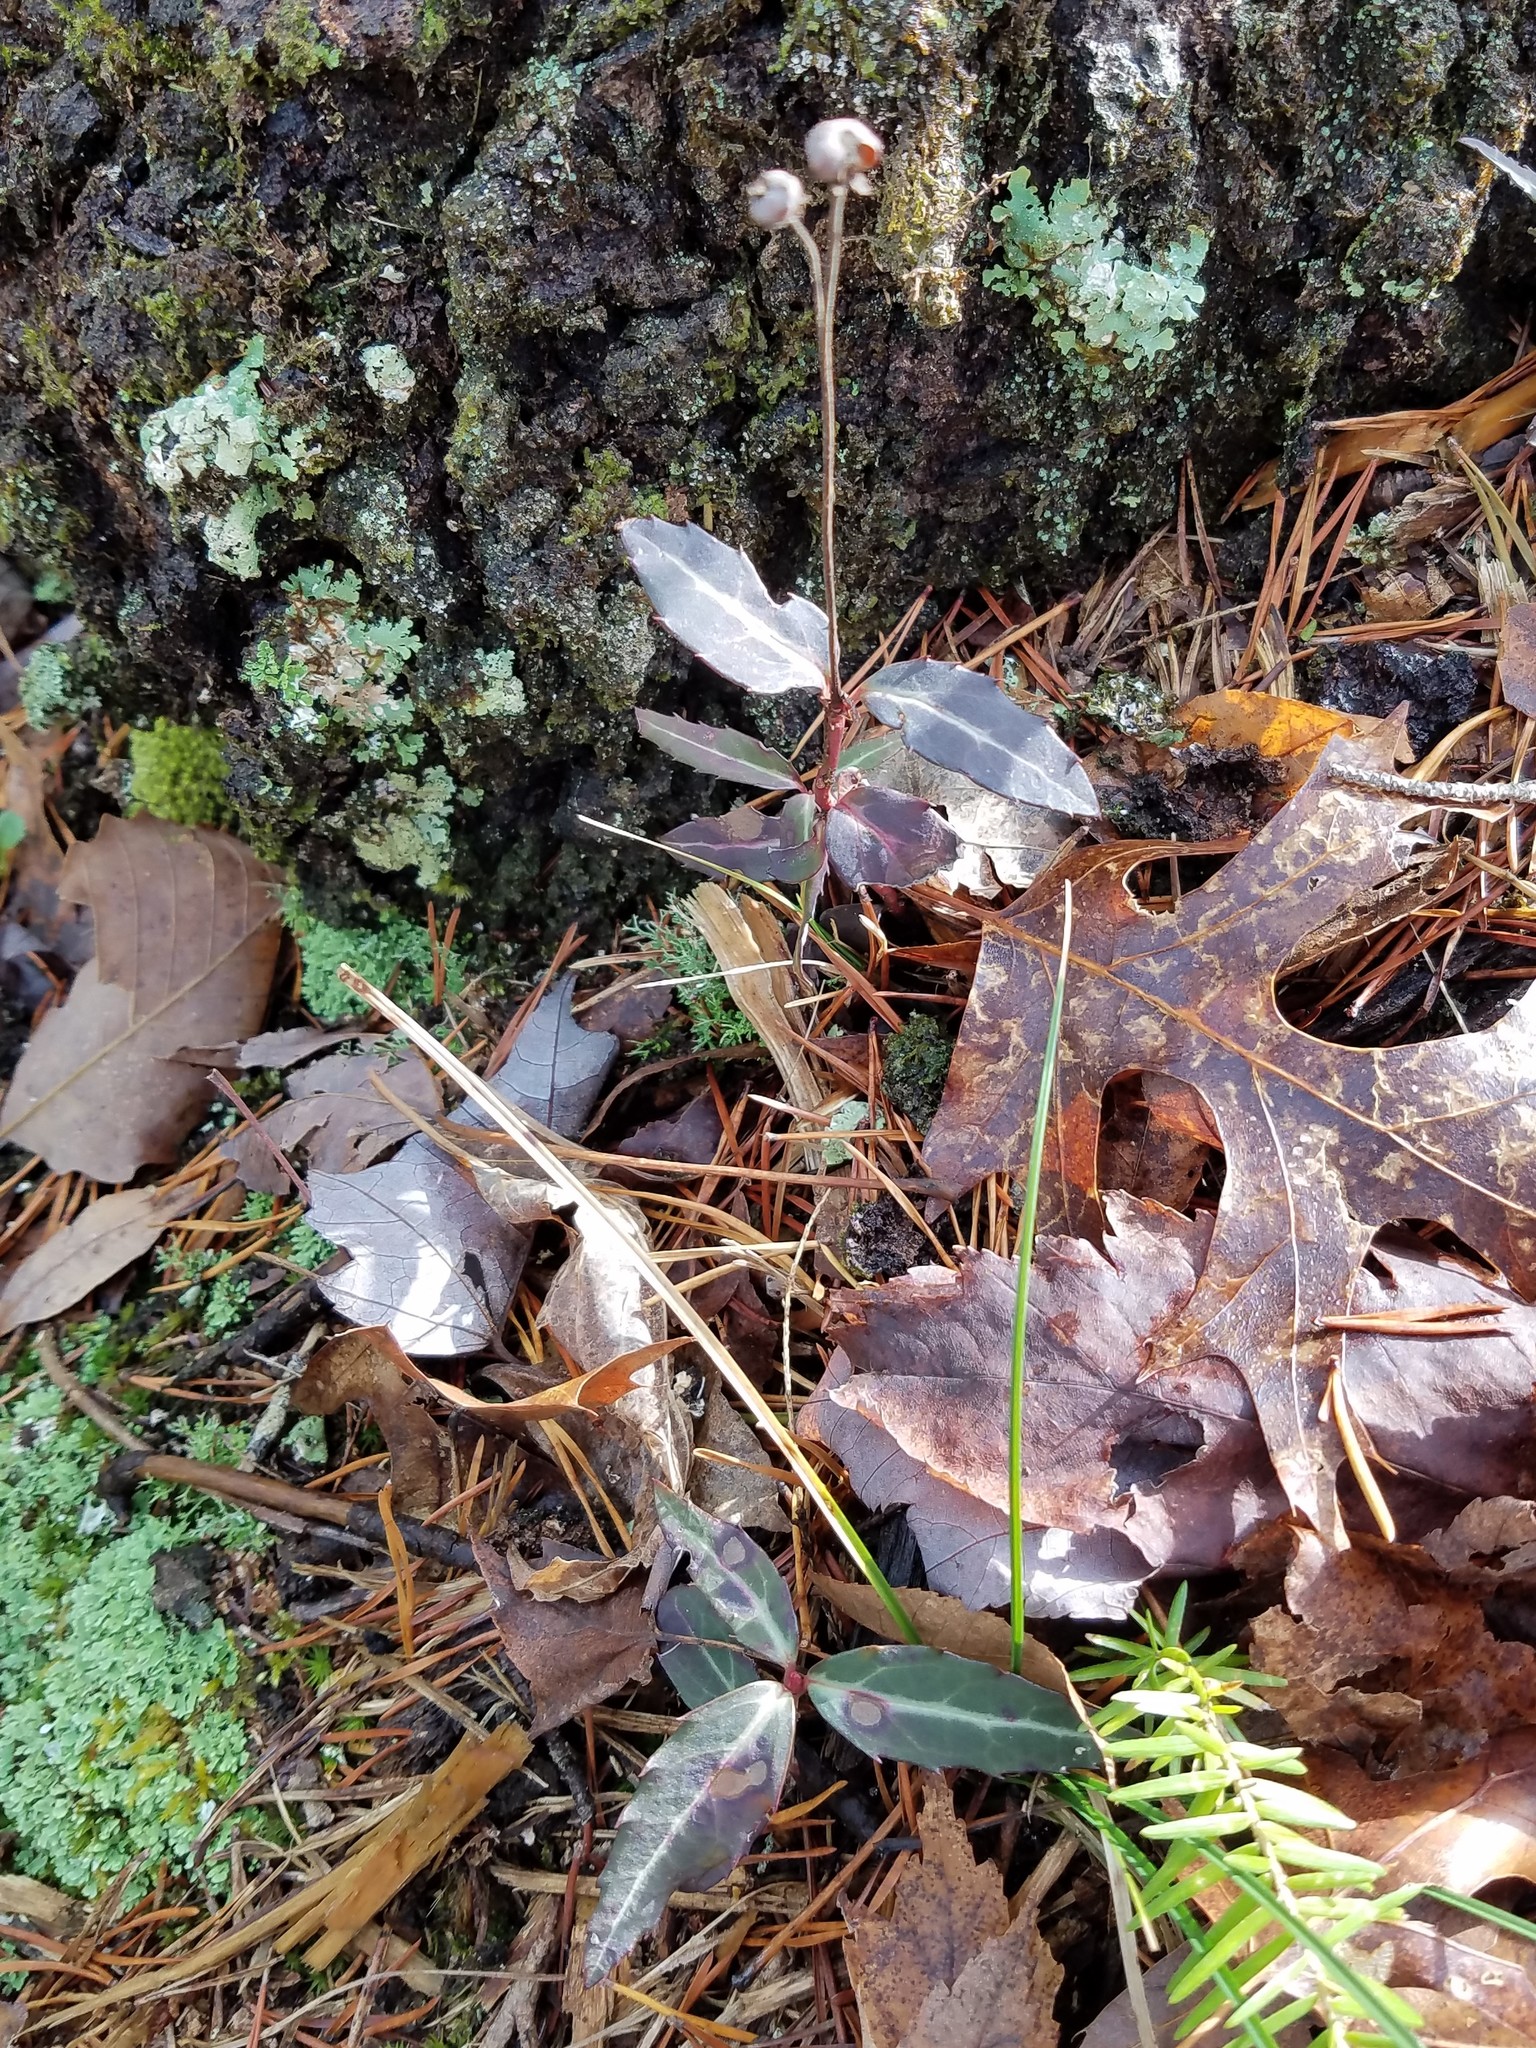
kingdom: Plantae
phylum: Tracheophyta
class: Magnoliopsida
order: Ericales
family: Ericaceae
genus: Chimaphila
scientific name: Chimaphila maculata
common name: Spotted pipsissewa
